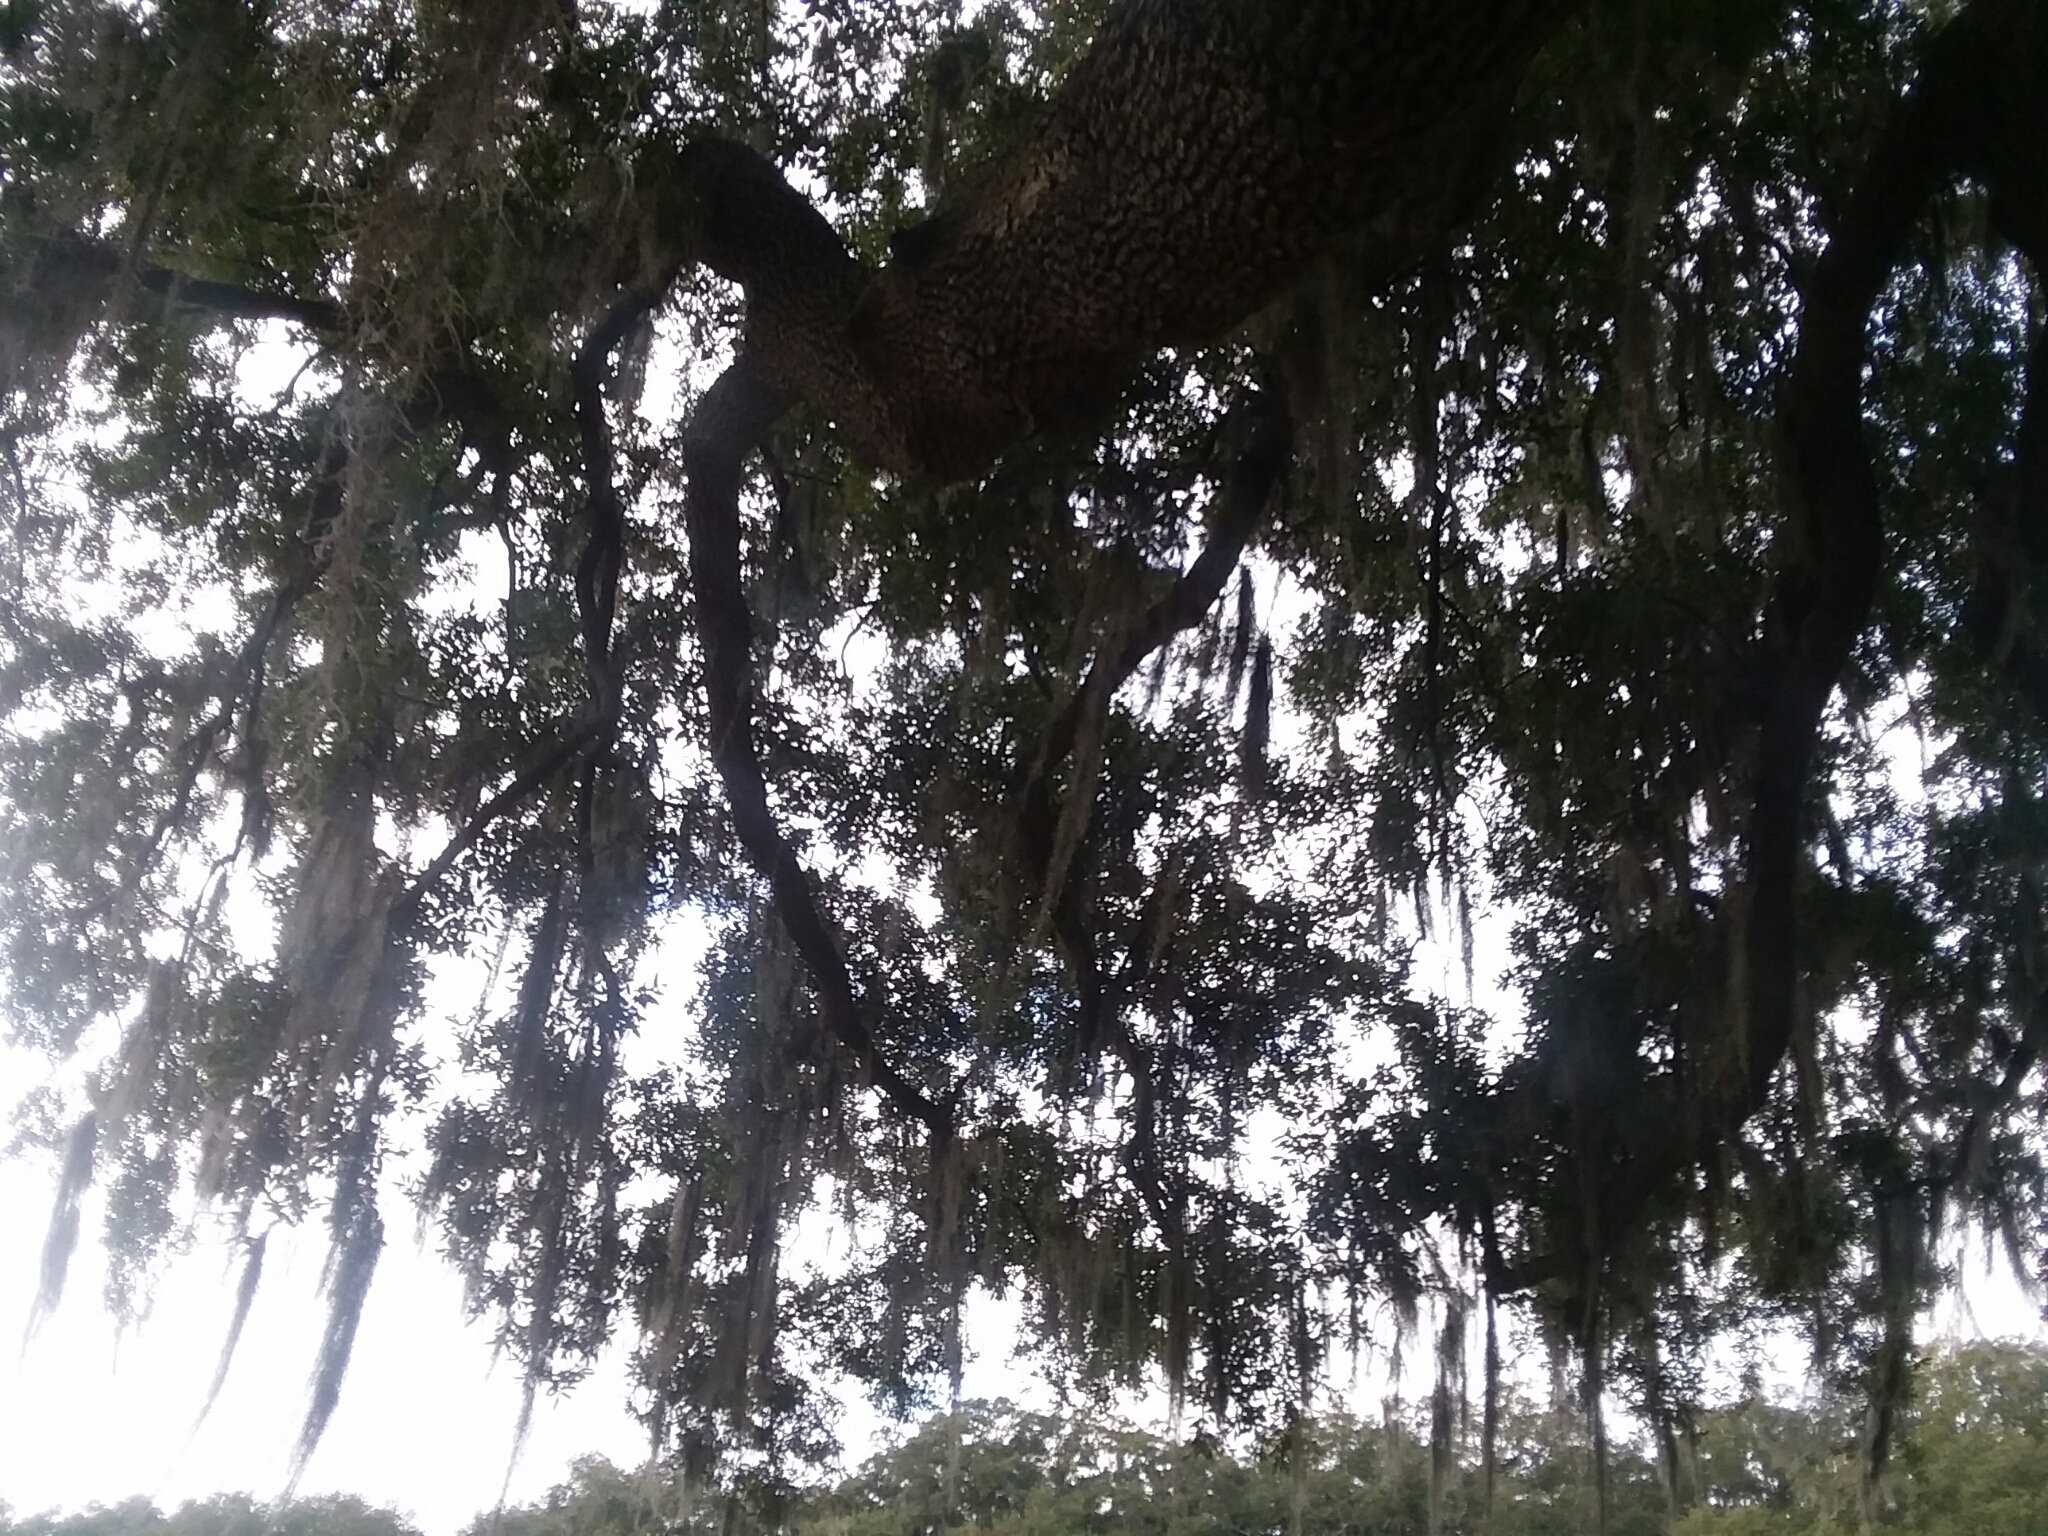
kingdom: Plantae
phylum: Tracheophyta
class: Magnoliopsida
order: Fagales
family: Fagaceae
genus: Quercus
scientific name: Quercus virginiana
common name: Southern live oak
